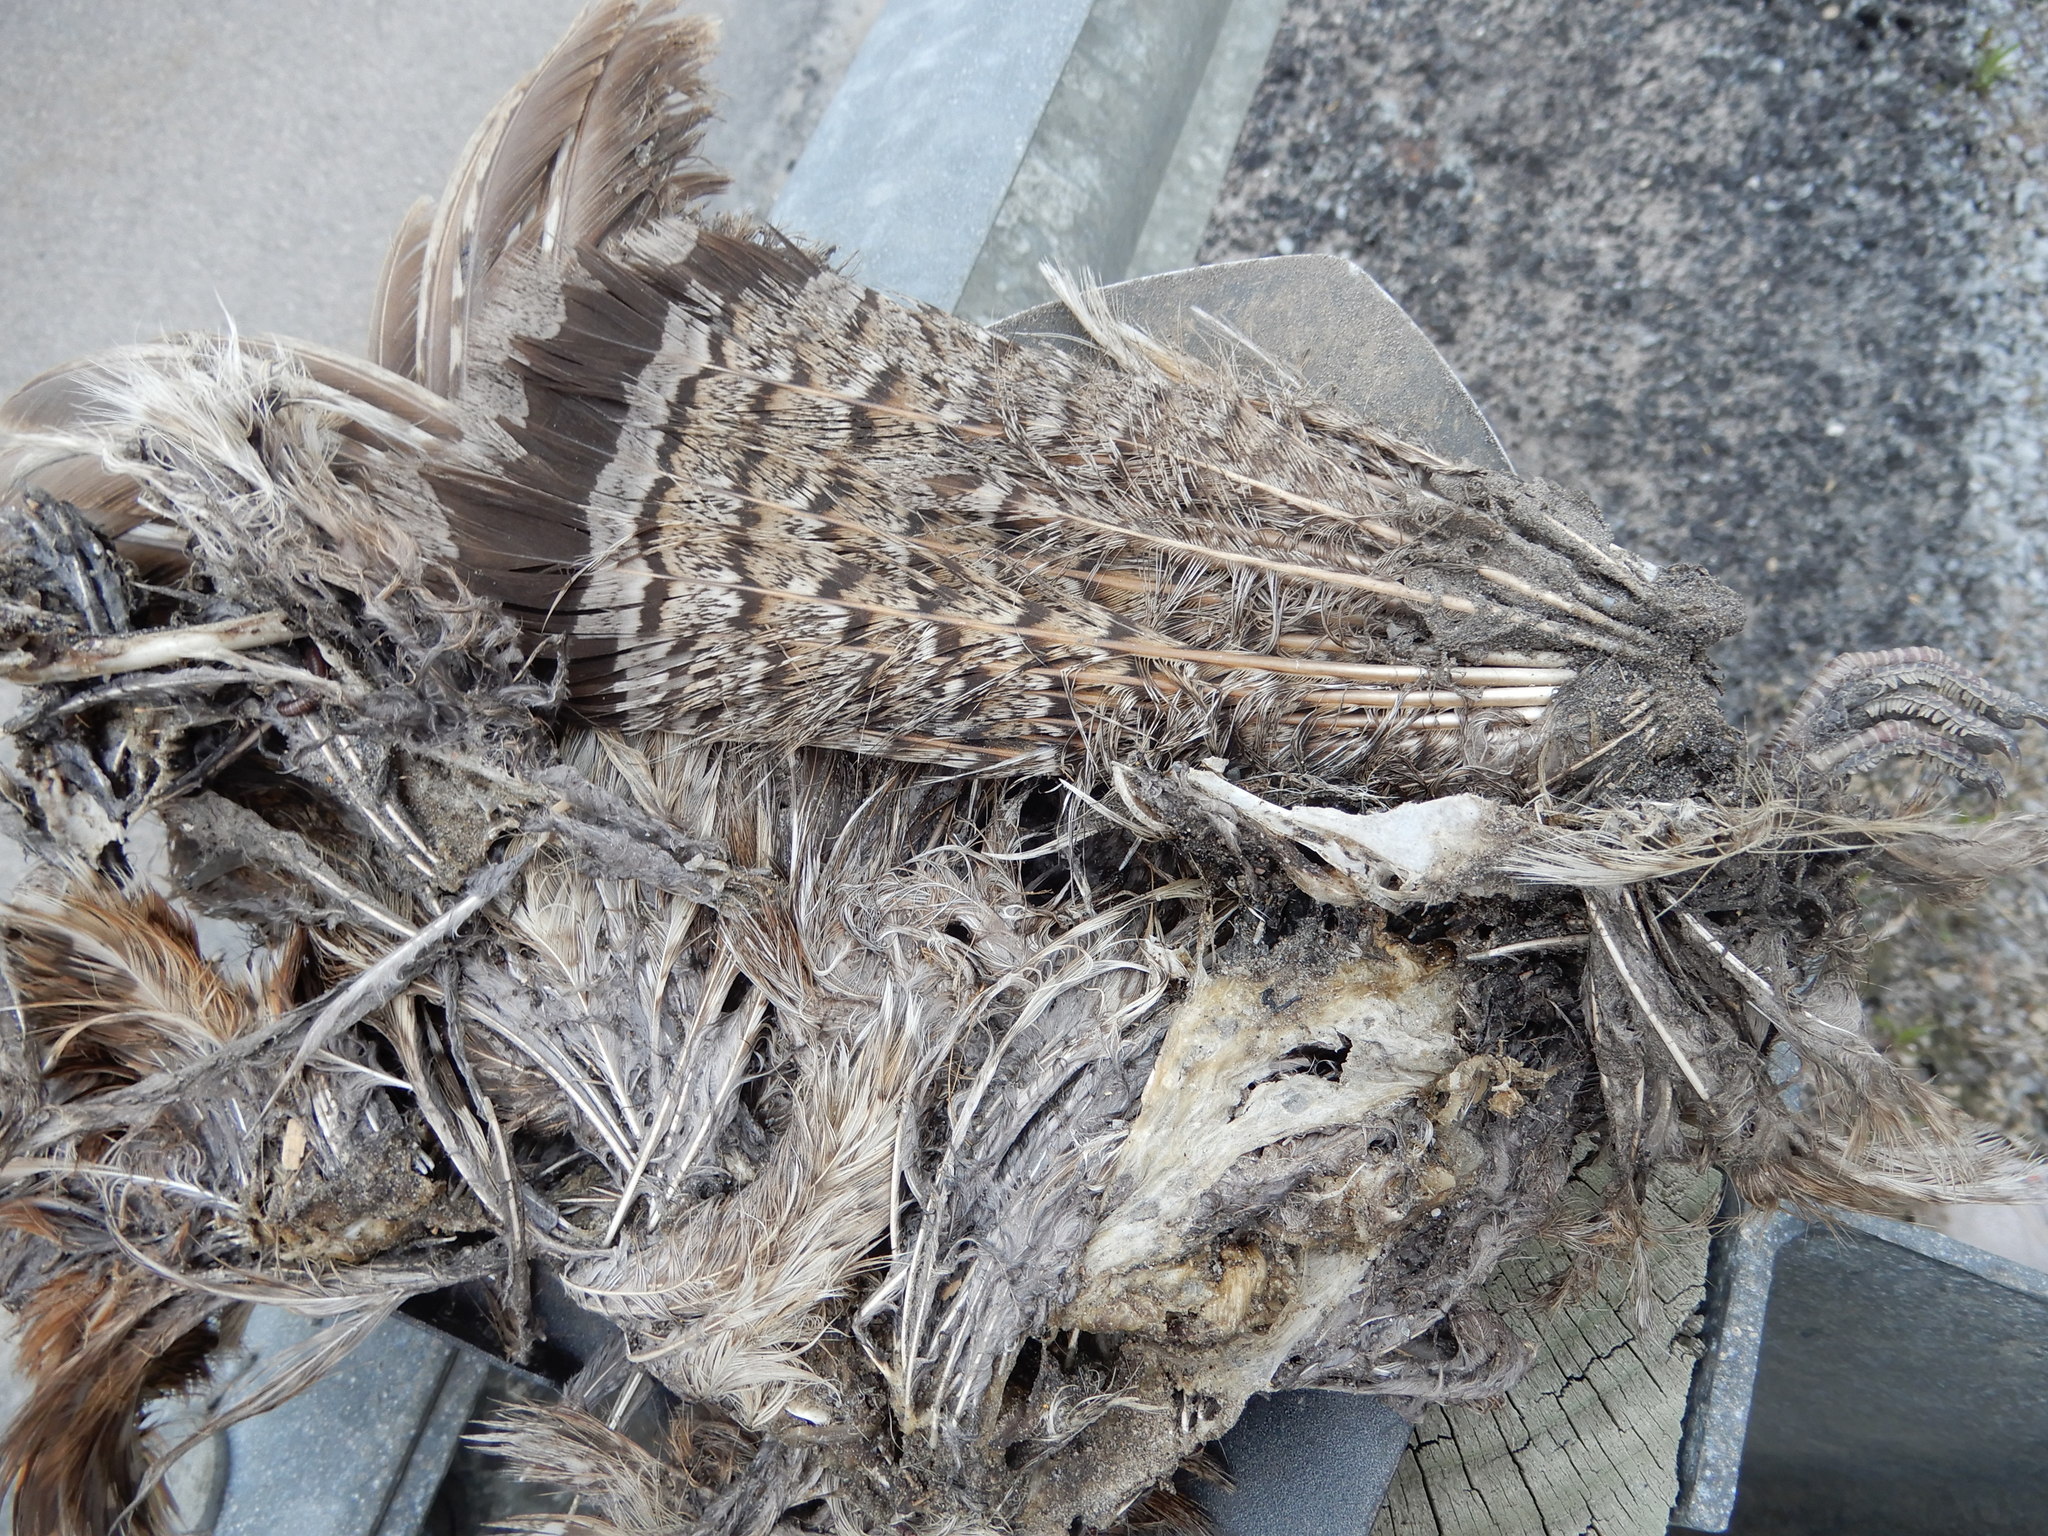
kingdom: Animalia
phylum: Chordata
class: Aves
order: Galliformes
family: Phasianidae
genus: Bonasa
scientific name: Bonasa umbellus
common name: Ruffed grouse
